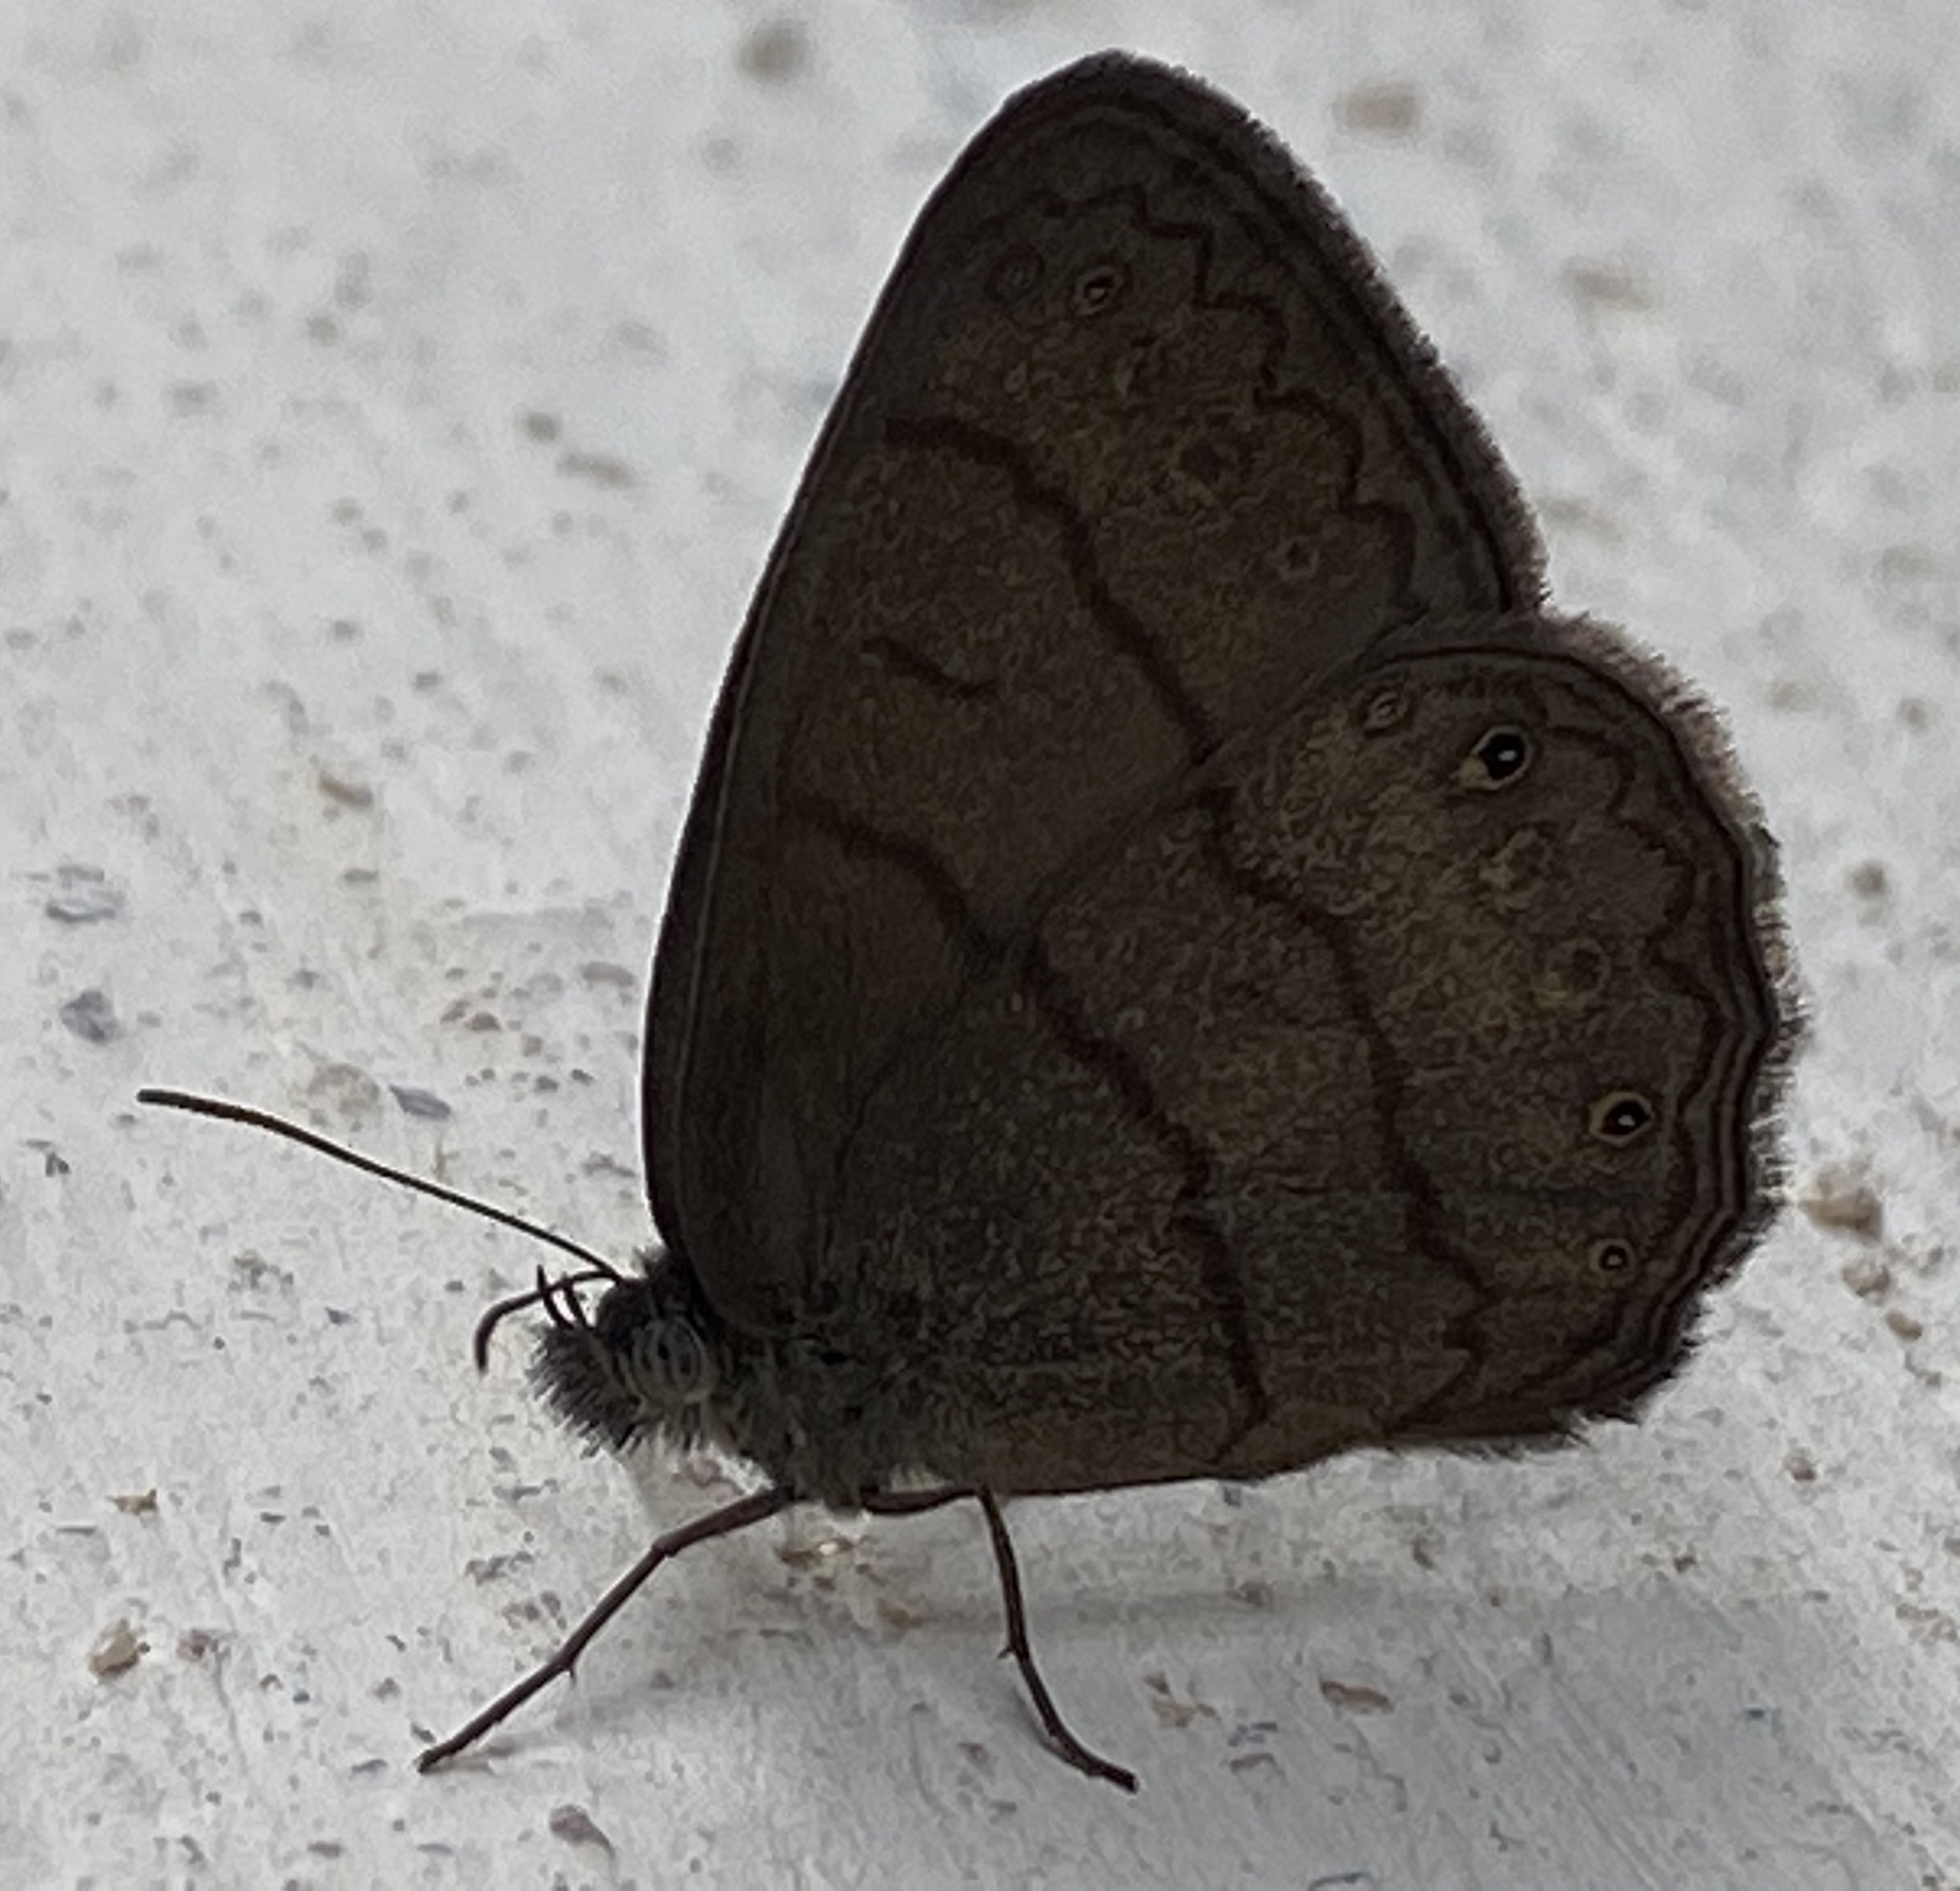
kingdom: Animalia
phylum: Arthropoda
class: Insecta
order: Lepidoptera
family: Nymphalidae
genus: Hermeuptychia
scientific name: Hermeuptychia hermes
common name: Hermes satyr
